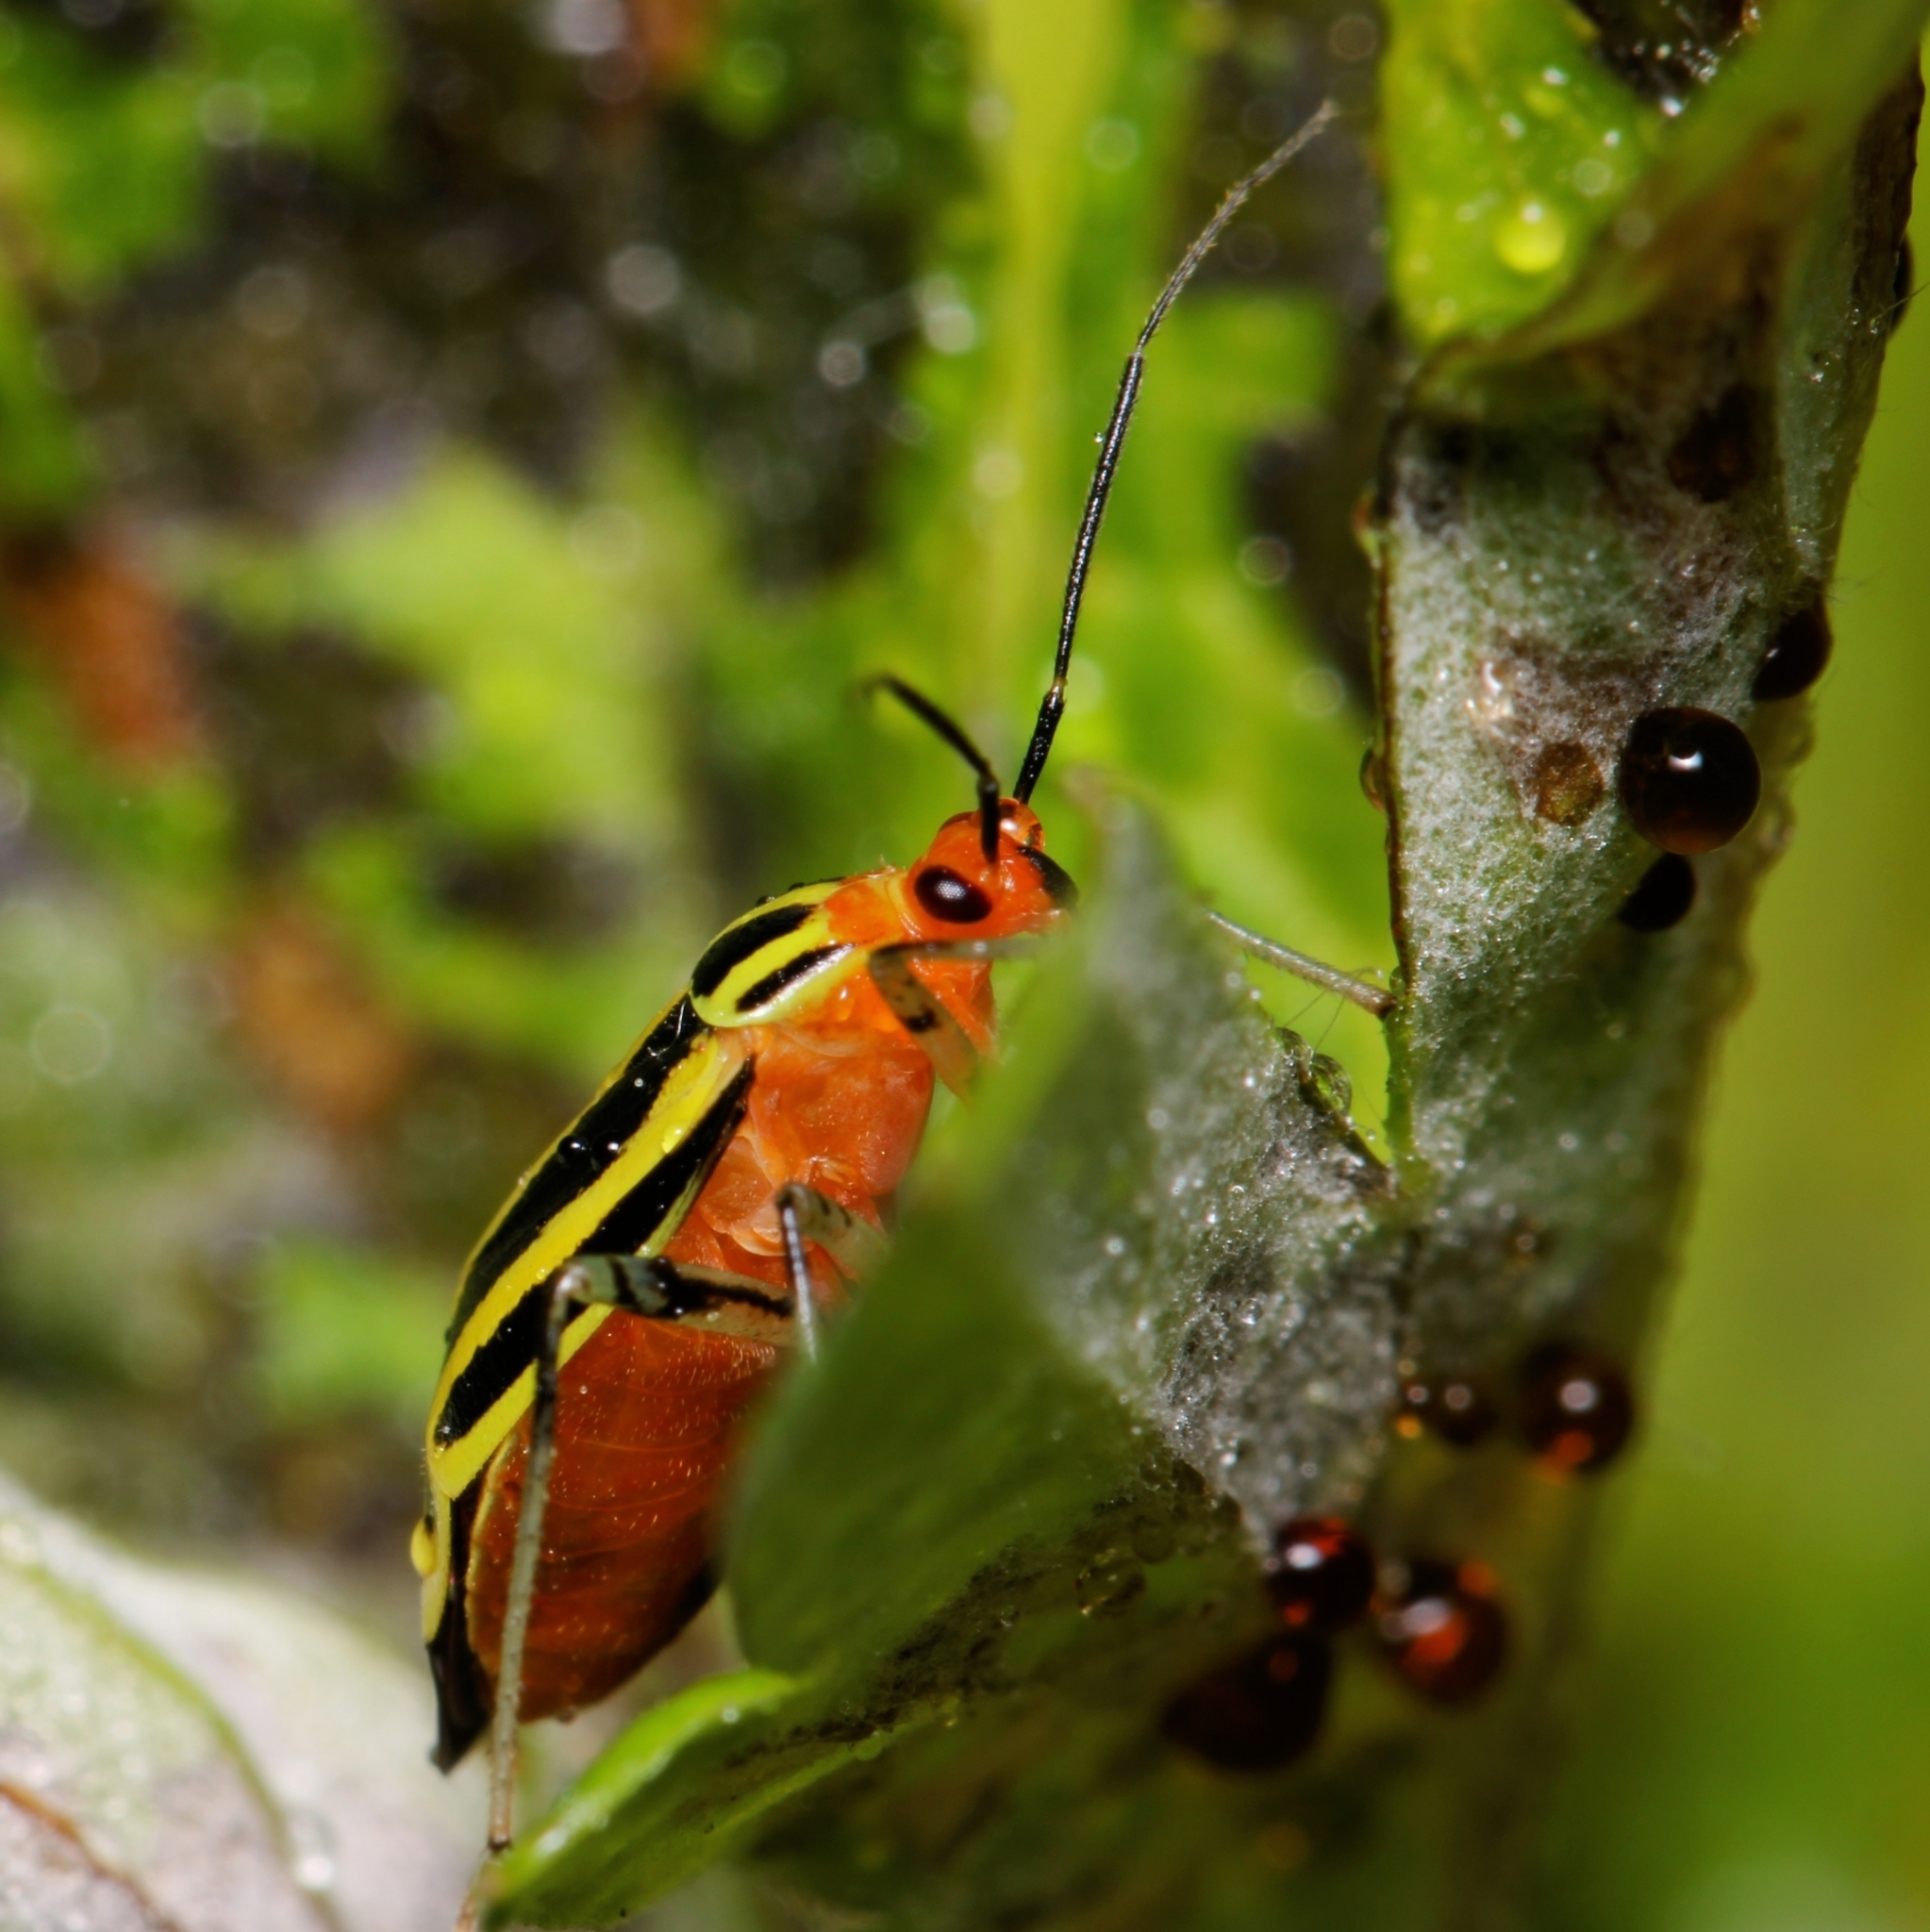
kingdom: Animalia
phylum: Arthropoda
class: Insecta
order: Hemiptera
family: Miridae
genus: Poecilocapsus
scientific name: Poecilocapsus lineatus
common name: Four-lined plant bug
